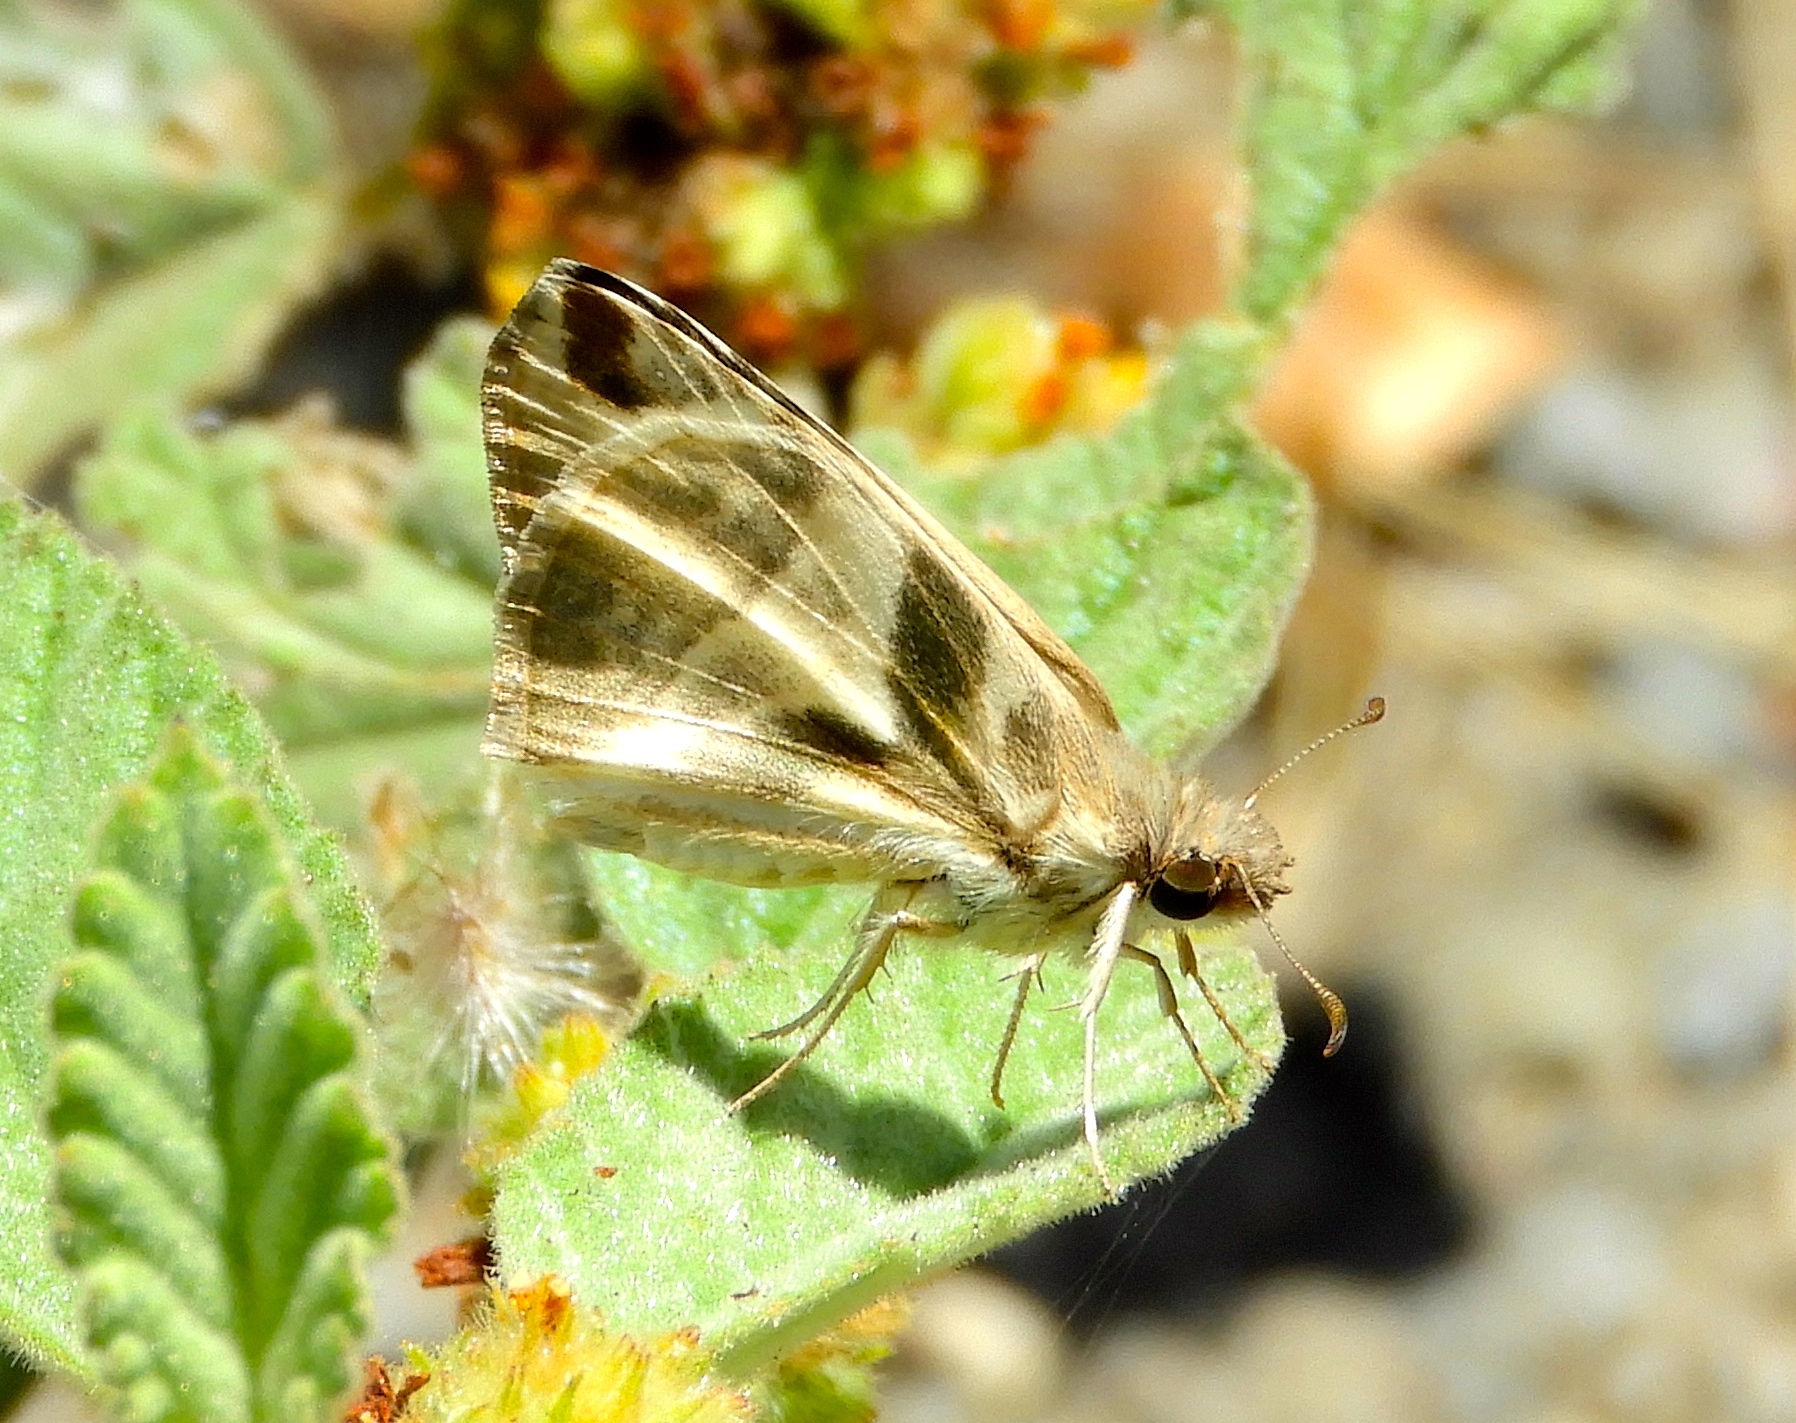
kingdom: Animalia
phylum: Arthropoda
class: Insecta
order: Lepidoptera
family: Hesperiidae
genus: Heliopetes
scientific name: Heliopetes laviana
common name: Laviana white-skipper
